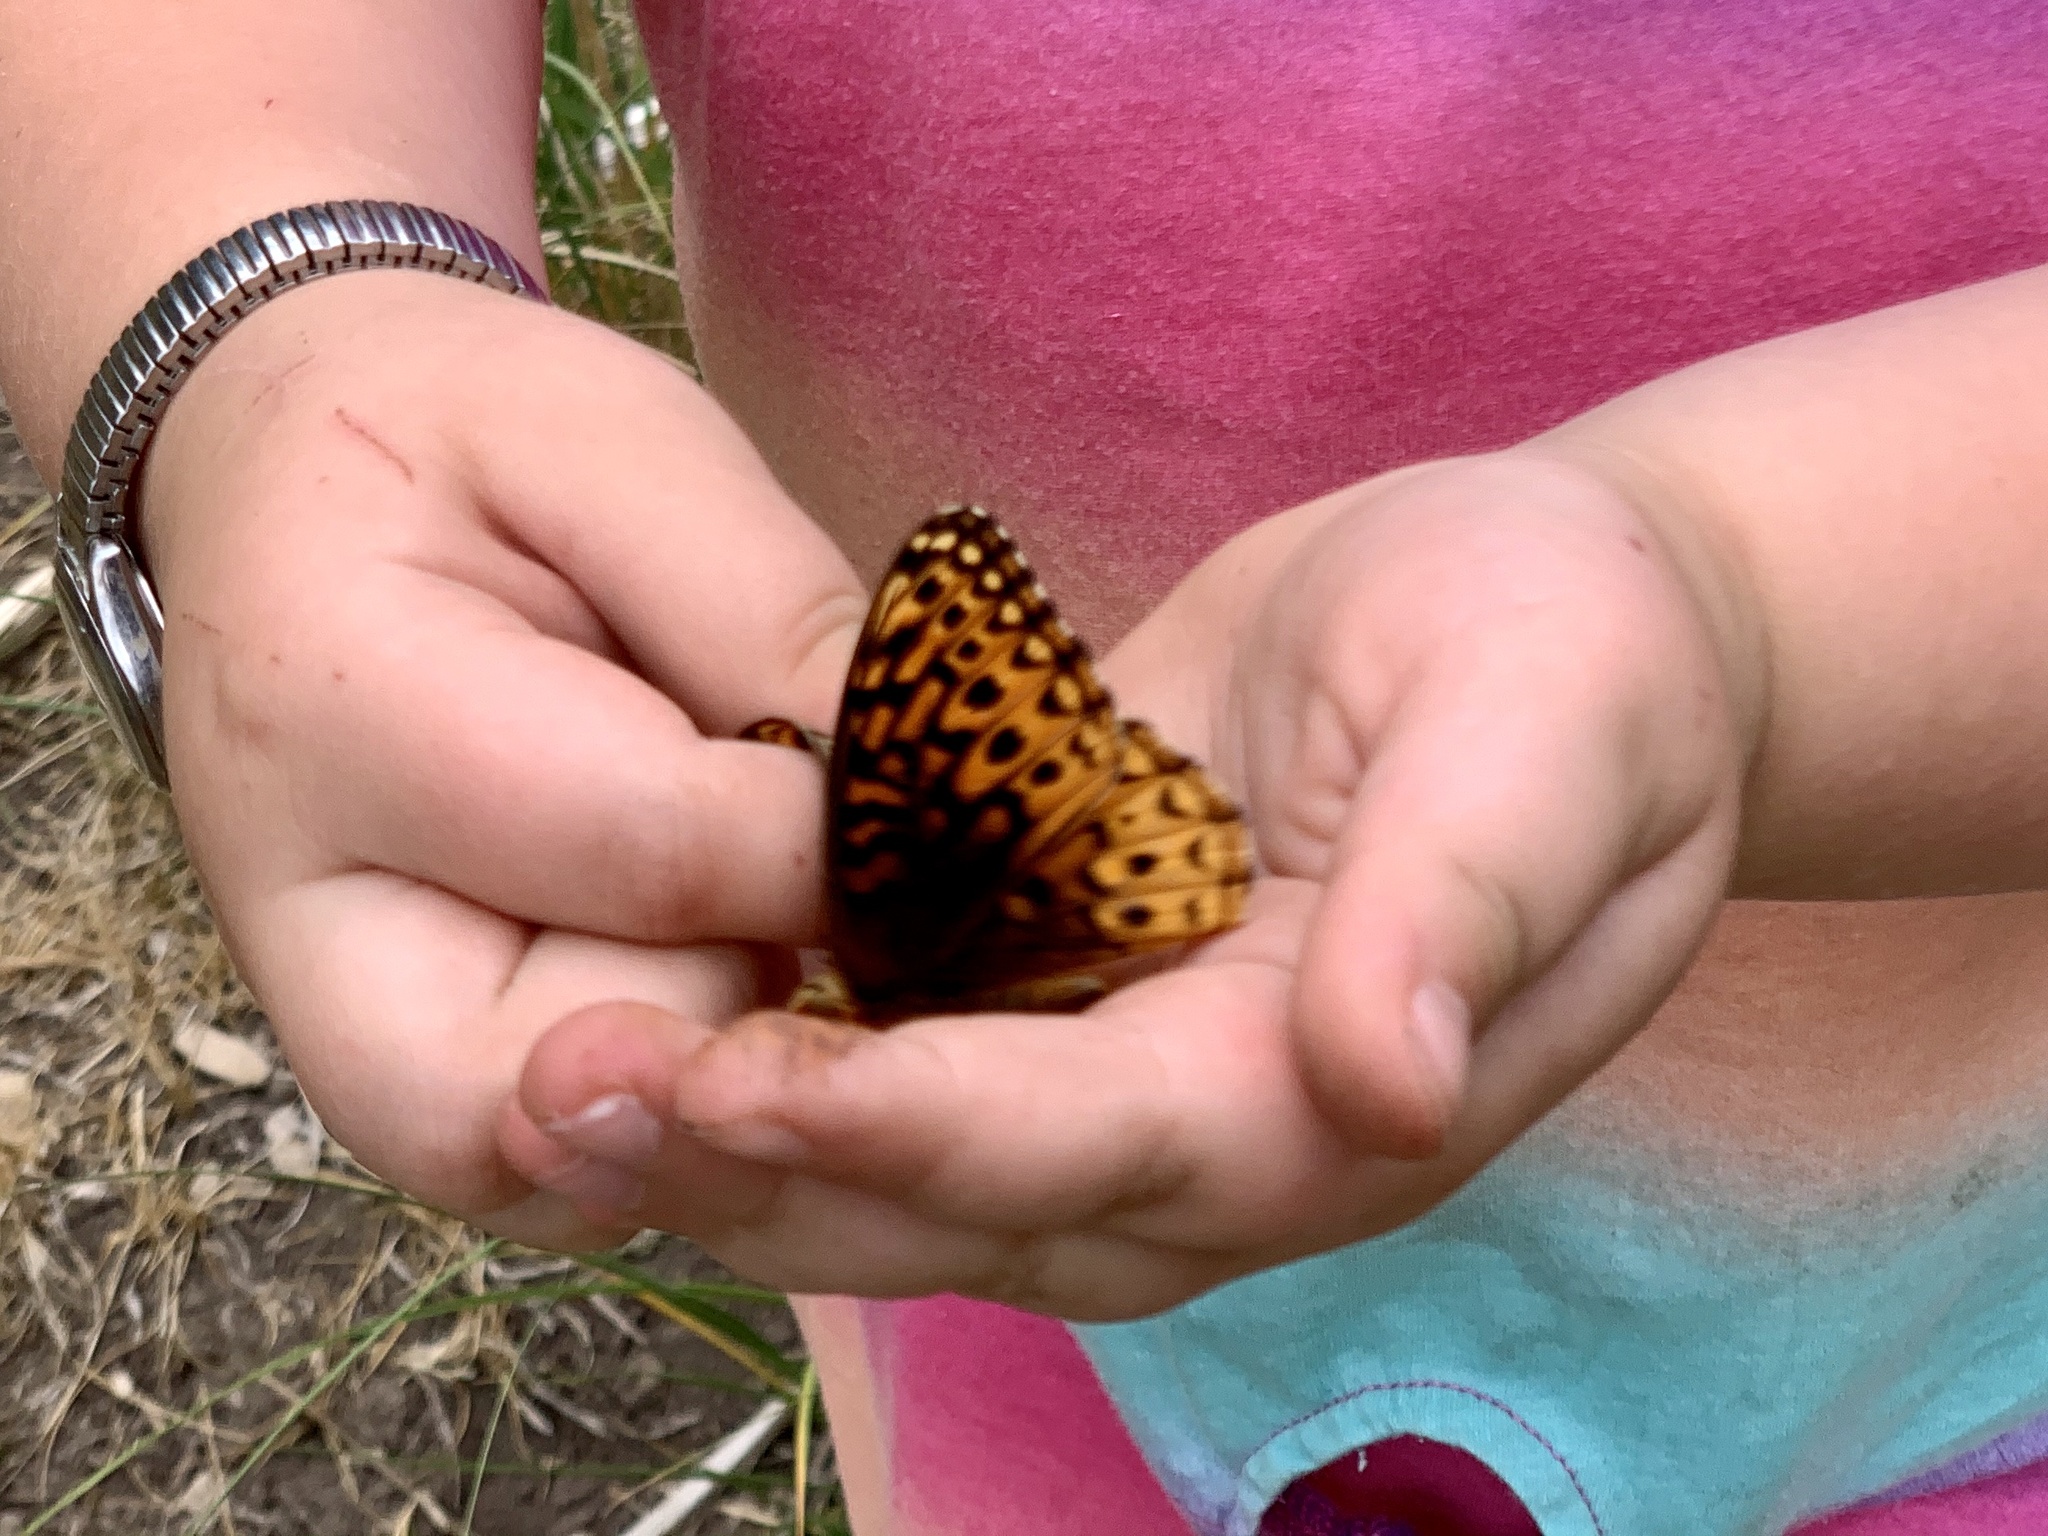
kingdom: Animalia
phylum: Arthropoda
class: Insecta
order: Lepidoptera
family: Nymphalidae
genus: Speyeria
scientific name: Speyeria atlantis
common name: Atlantis fritillary
